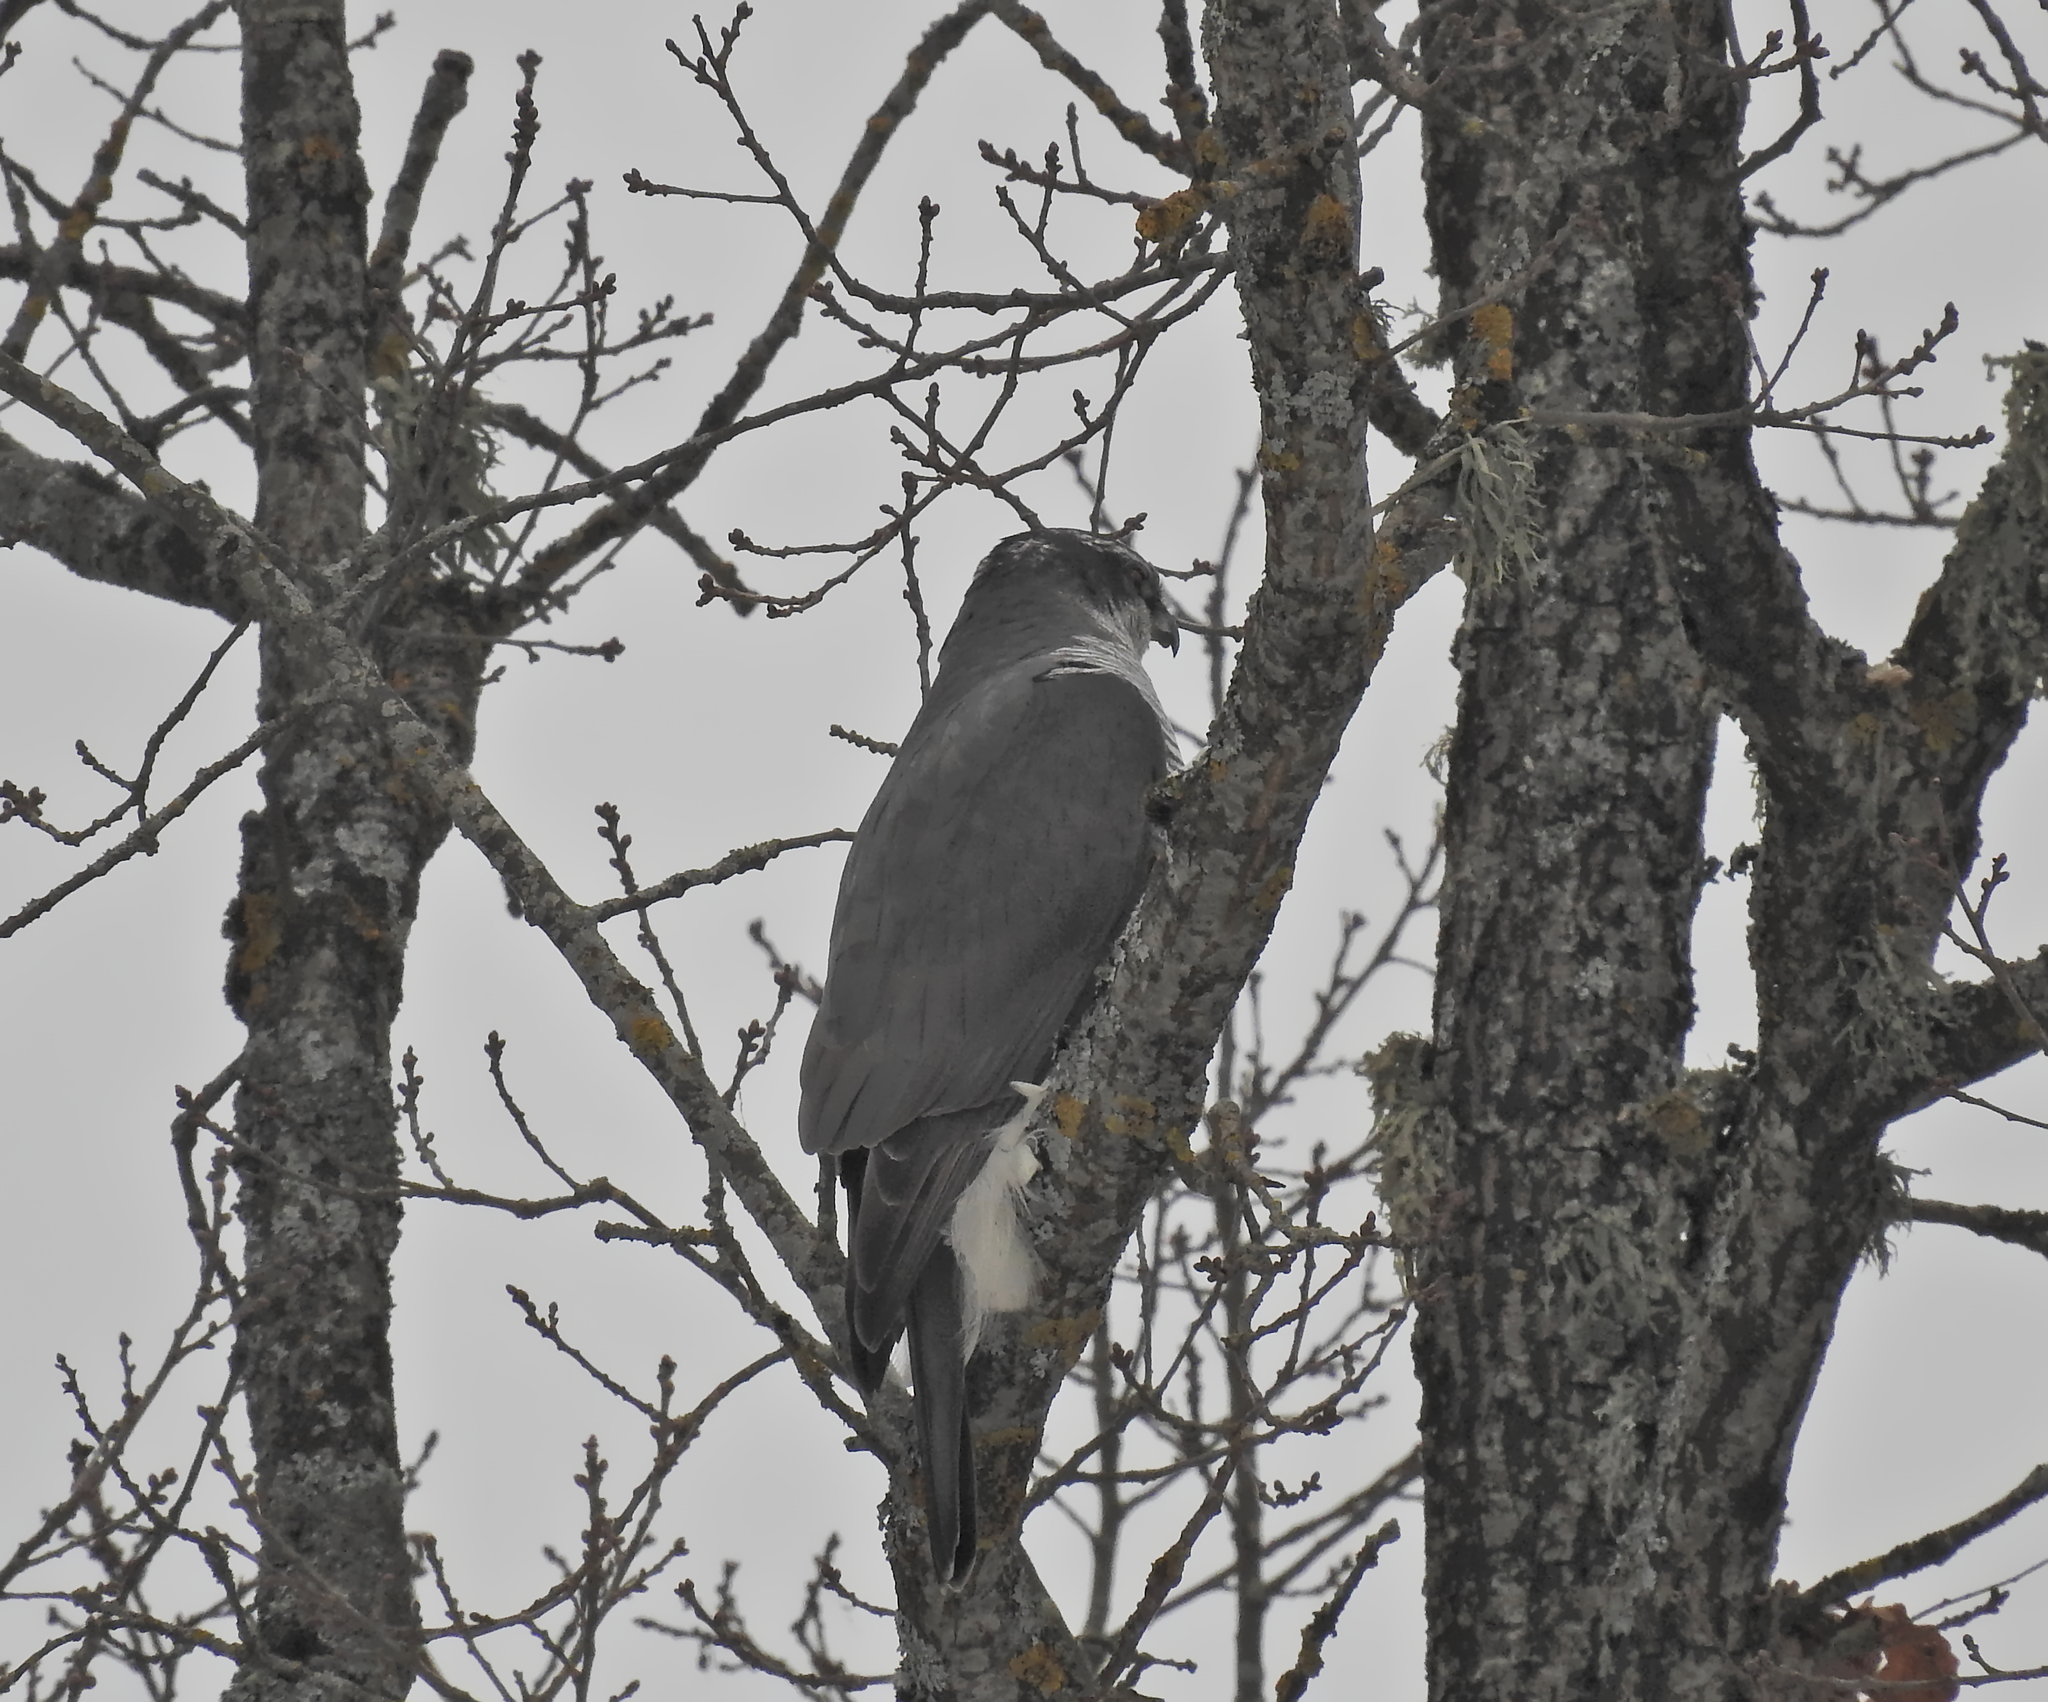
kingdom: Animalia
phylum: Chordata
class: Aves
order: Accipitriformes
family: Accipitridae
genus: Accipiter
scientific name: Accipiter gentilis
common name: Northern goshawk
